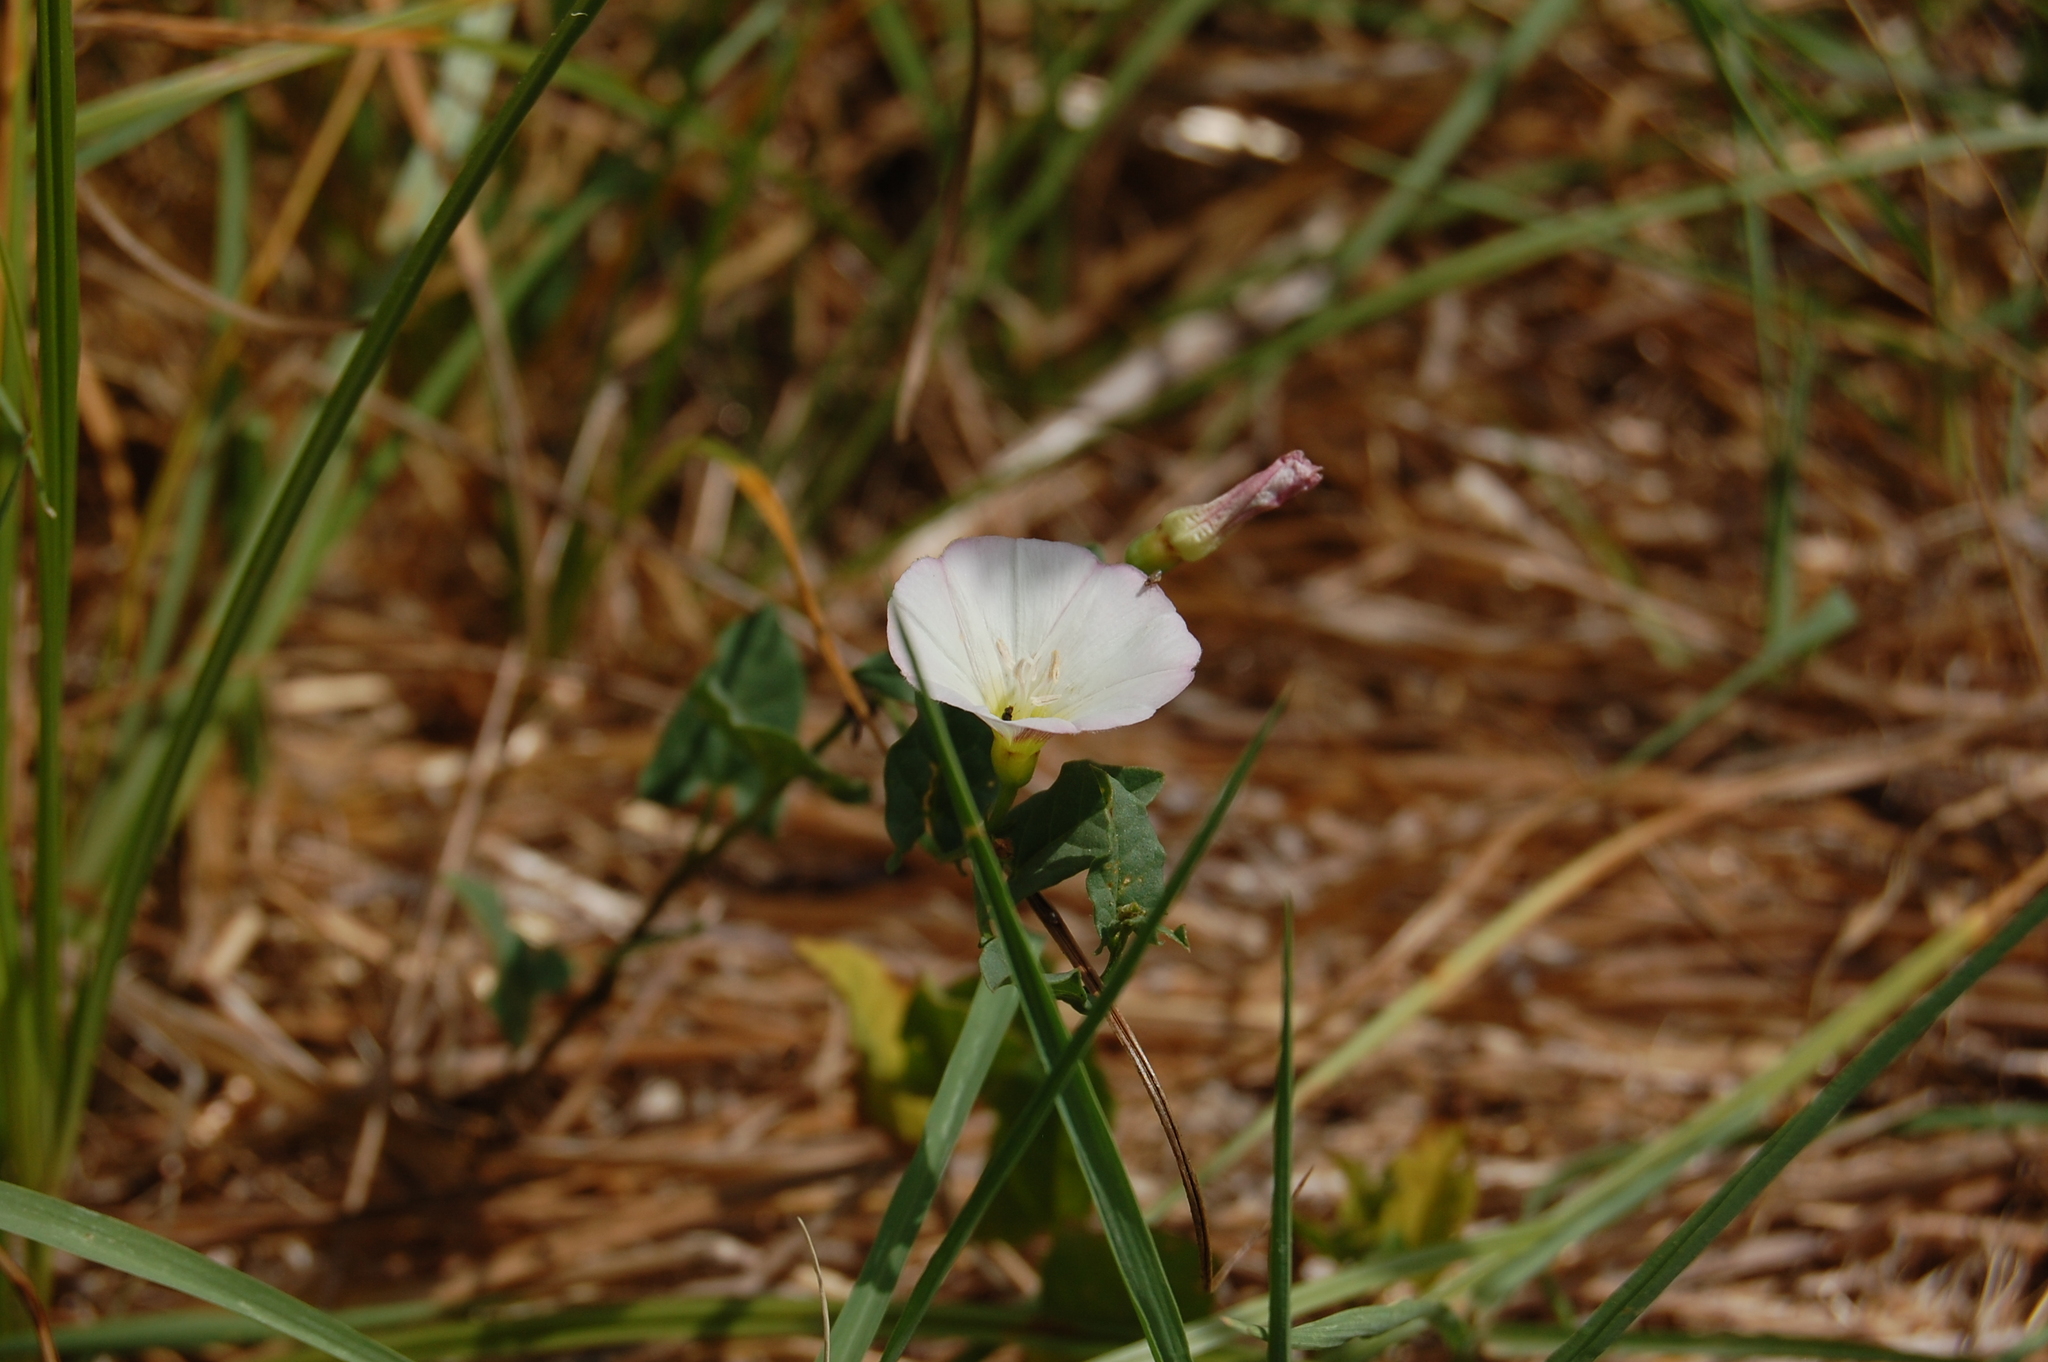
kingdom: Plantae
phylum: Tracheophyta
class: Magnoliopsida
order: Solanales
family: Convolvulaceae
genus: Convolvulus
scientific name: Convolvulus arvensis
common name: Field bindweed
